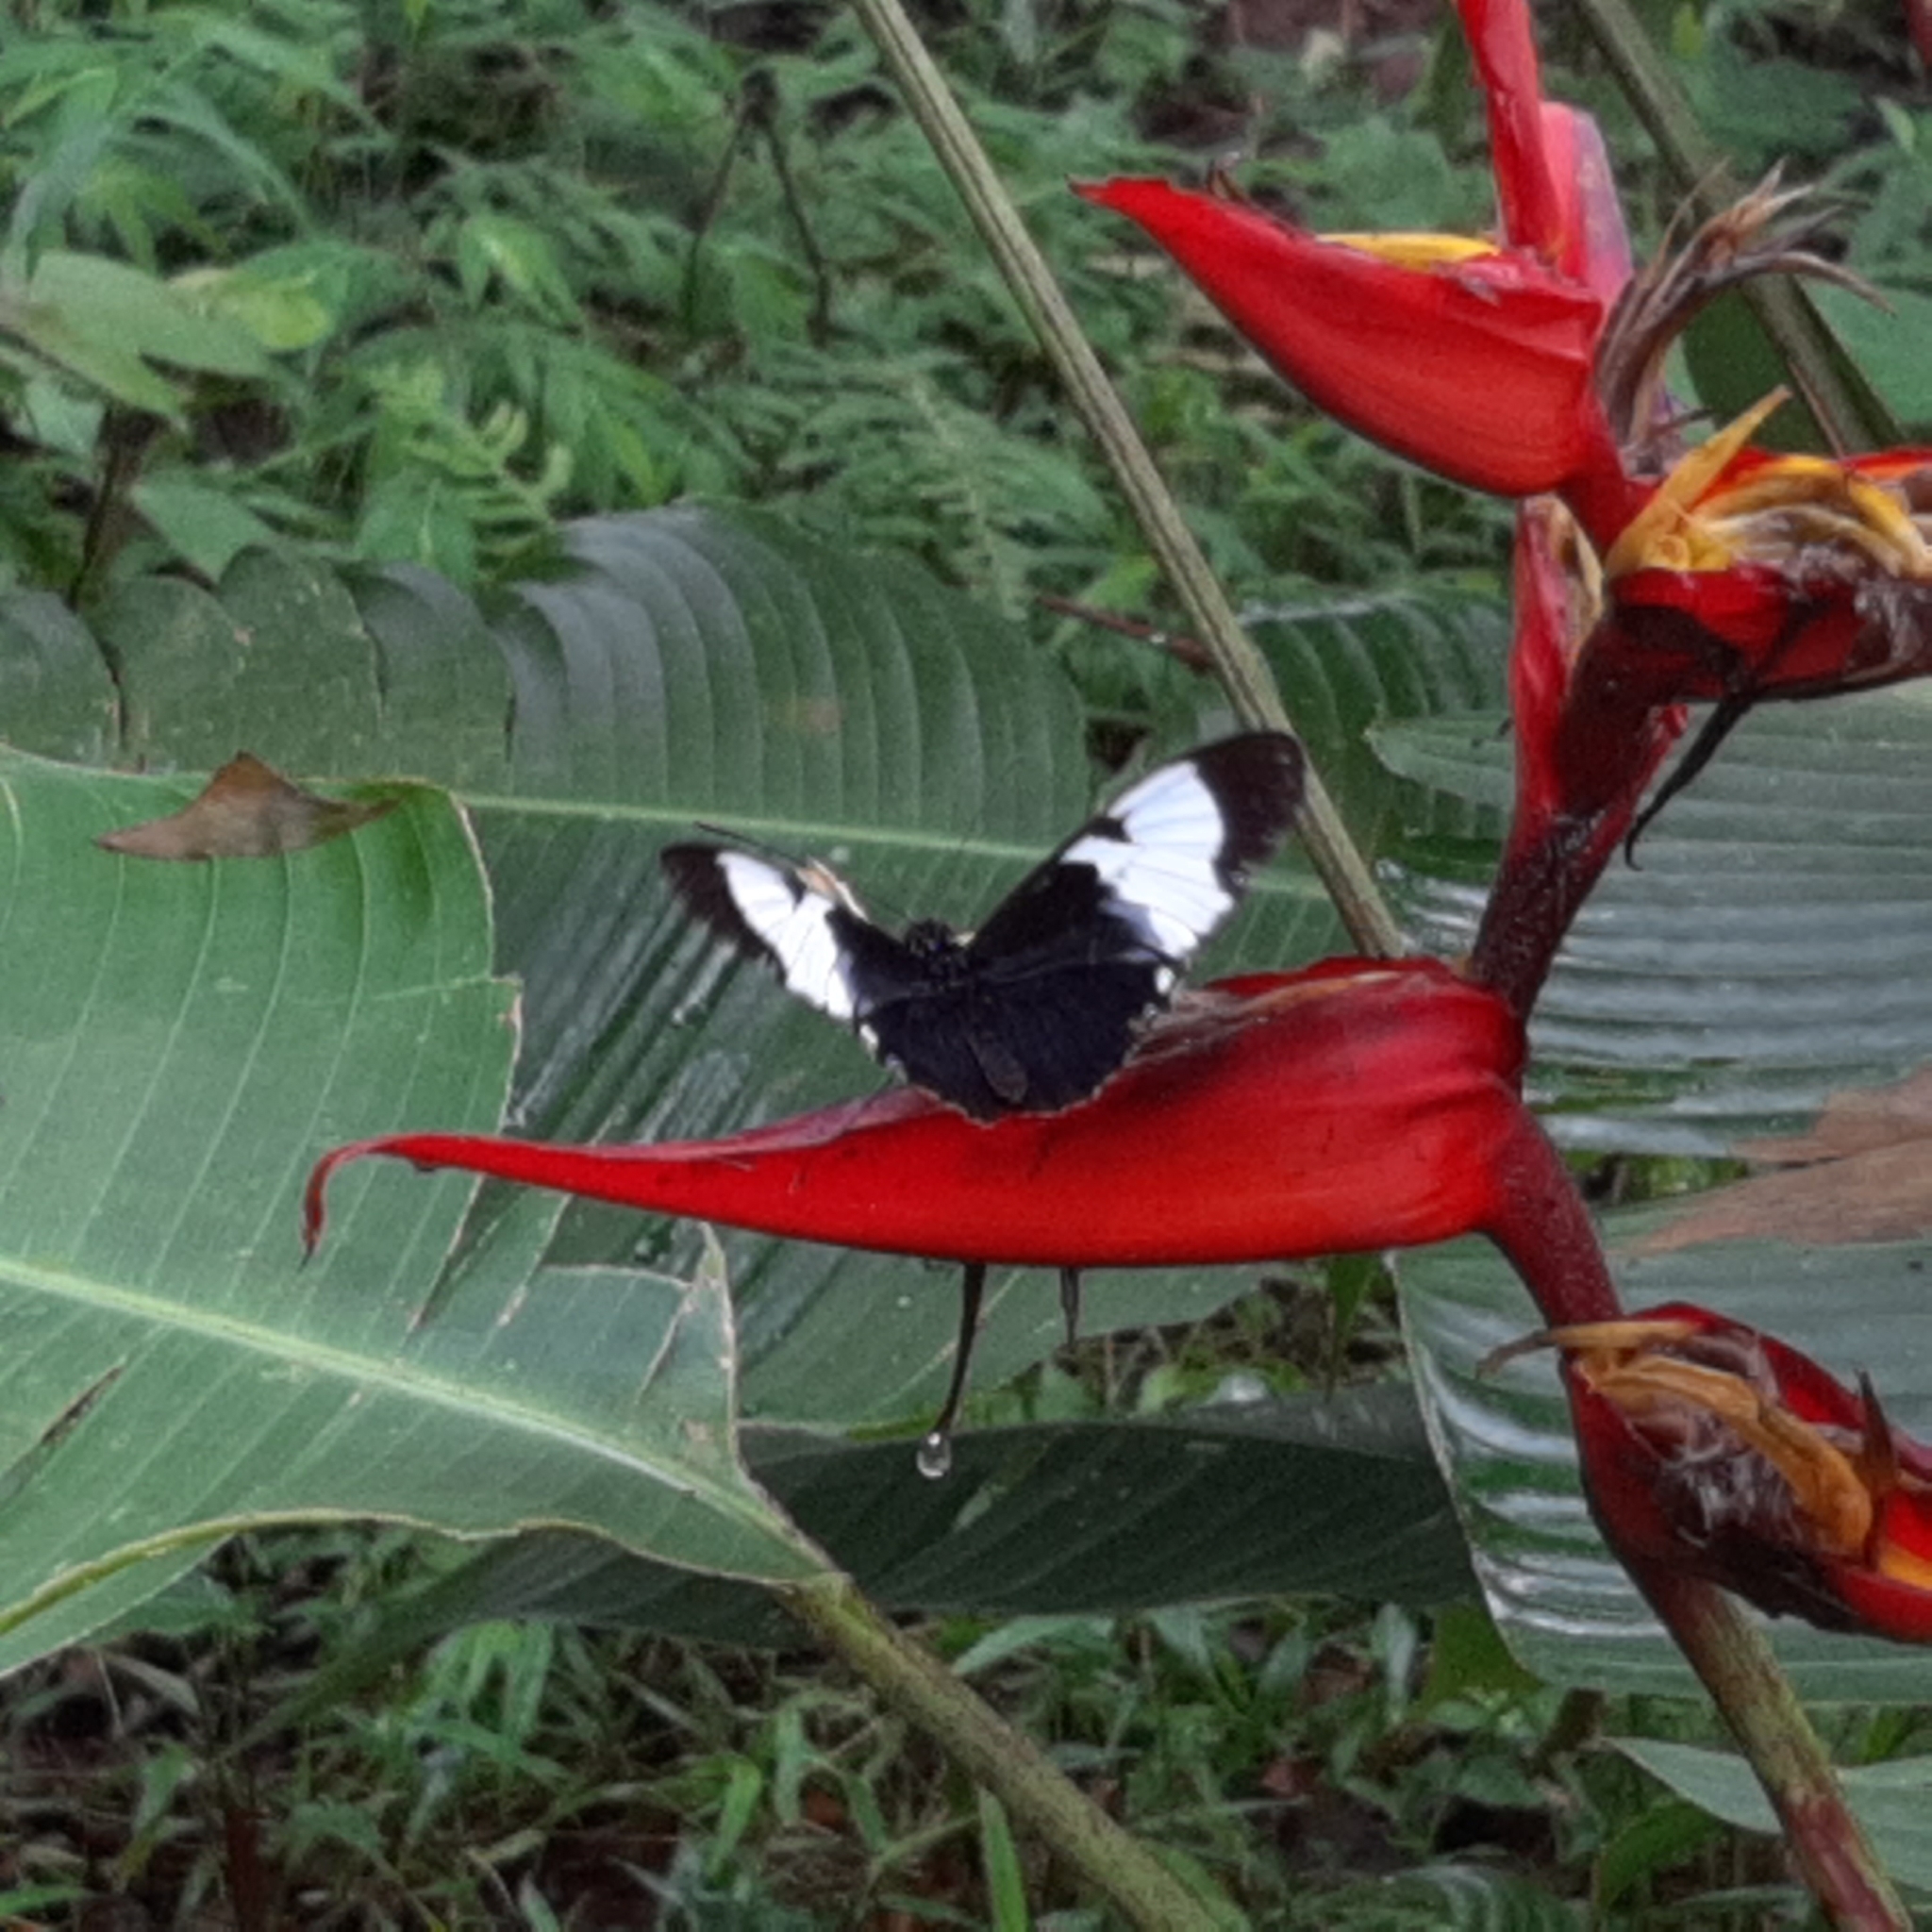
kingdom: Animalia
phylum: Arthropoda
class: Insecta
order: Lepidoptera
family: Nymphalidae
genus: Heliconius
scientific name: Heliconius cydno
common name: Cydno longwing
